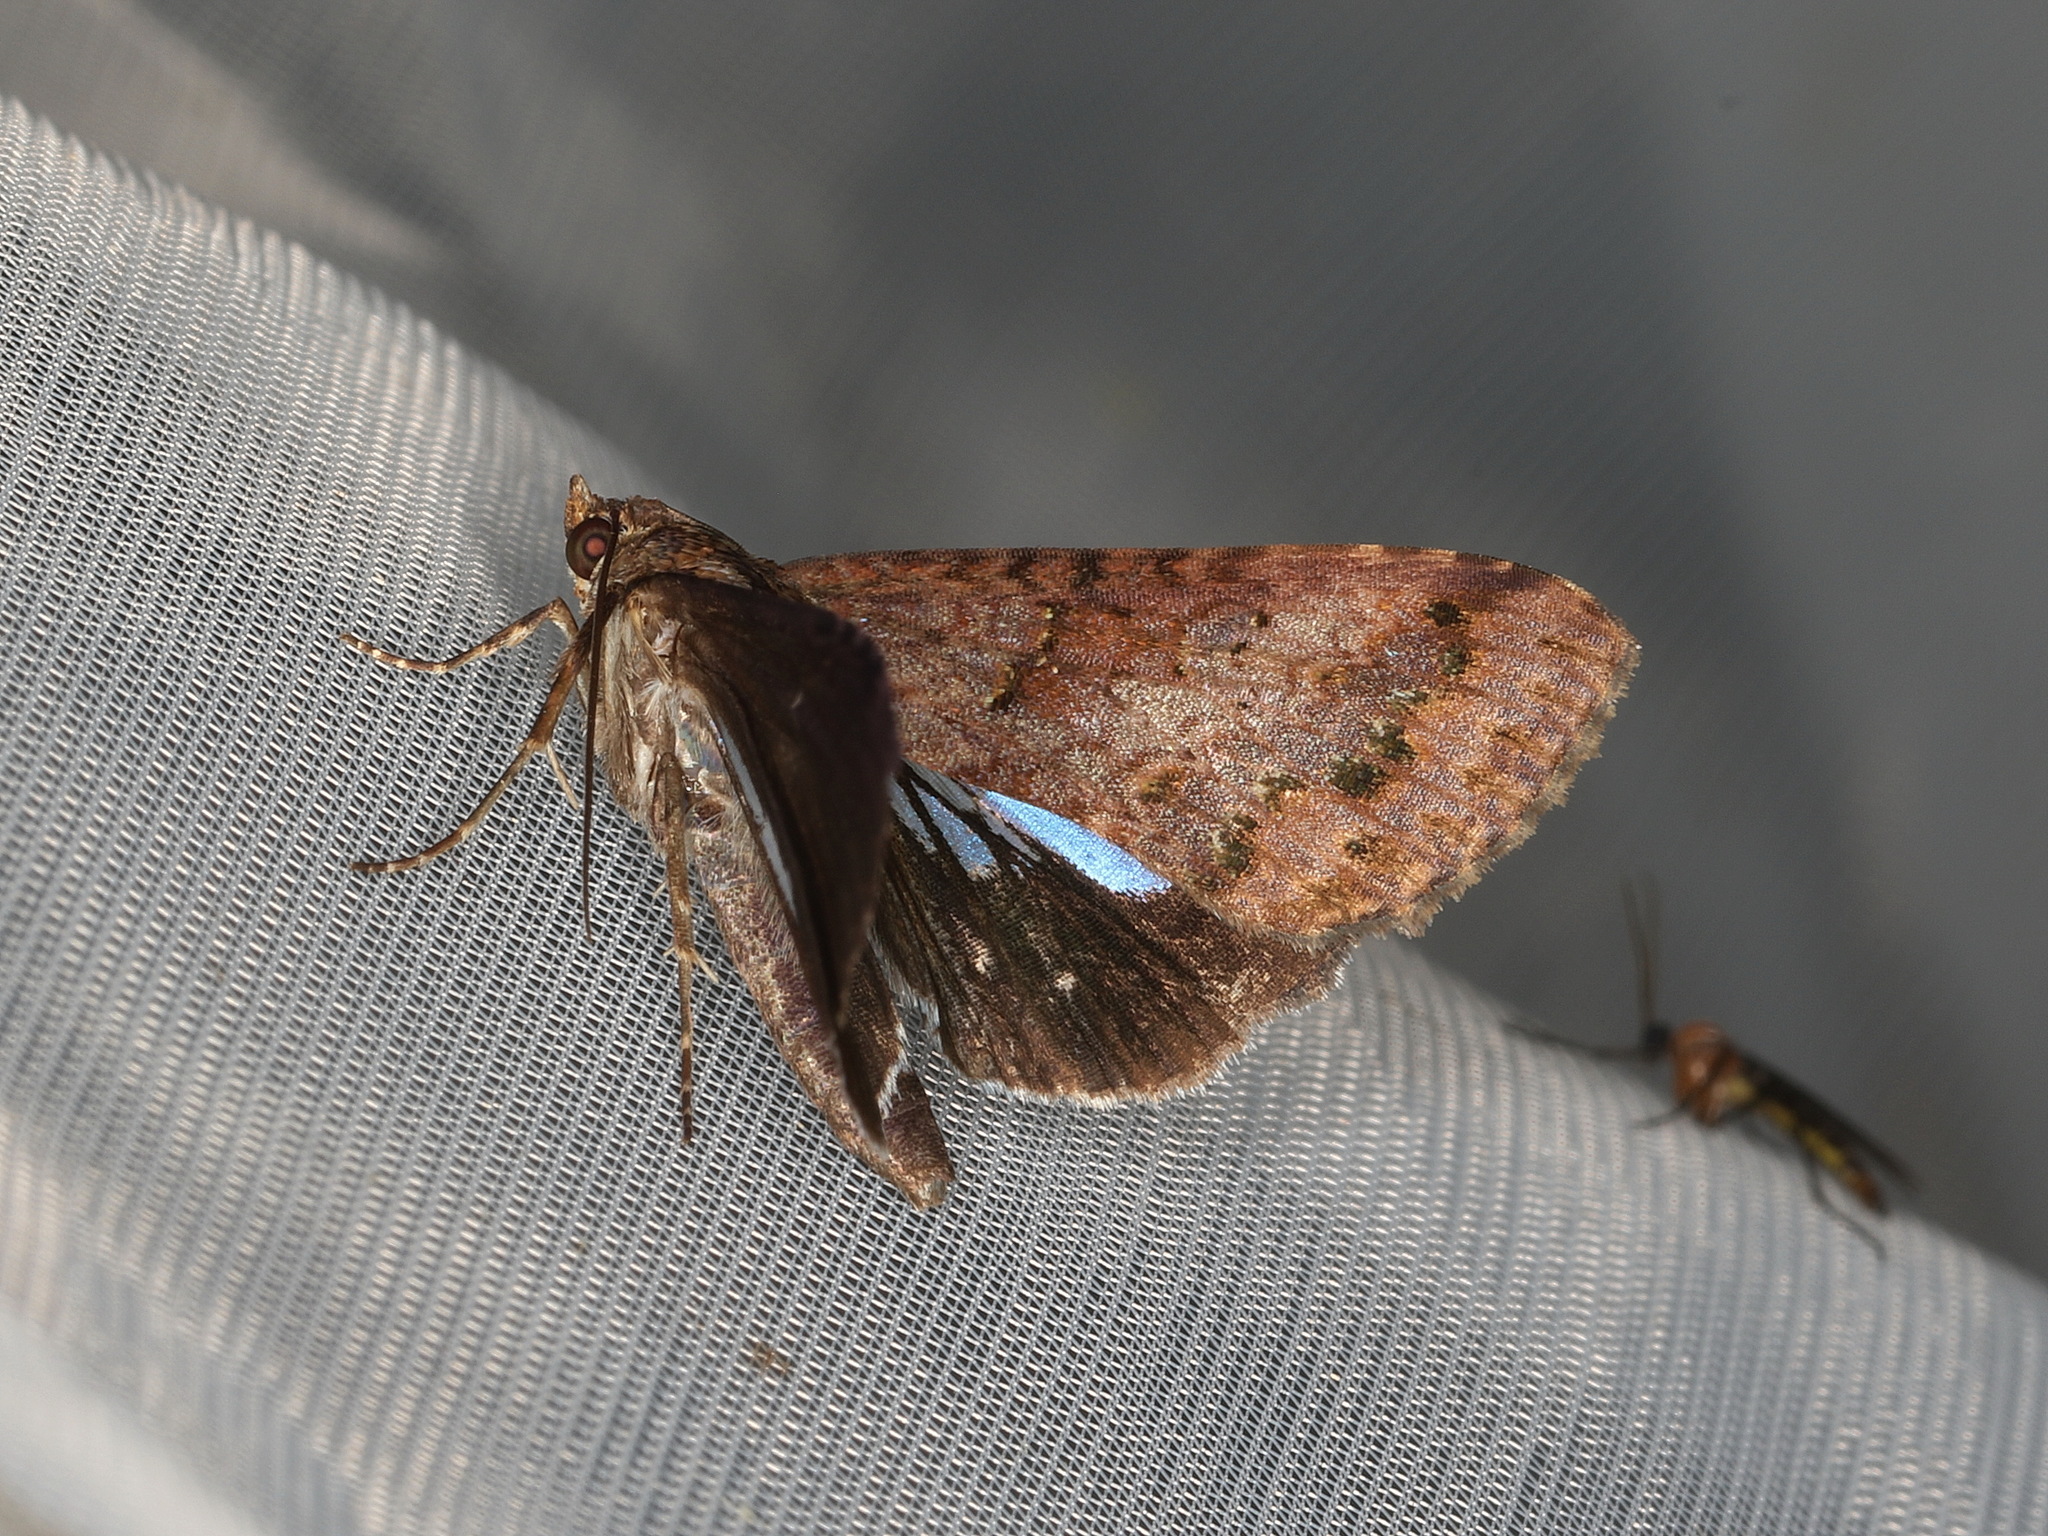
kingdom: Animalia
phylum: Arthropoda
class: Insecta
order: Lepidoptera
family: Euteliidae
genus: Lophoptera
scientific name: Lophoptera abbreviata
